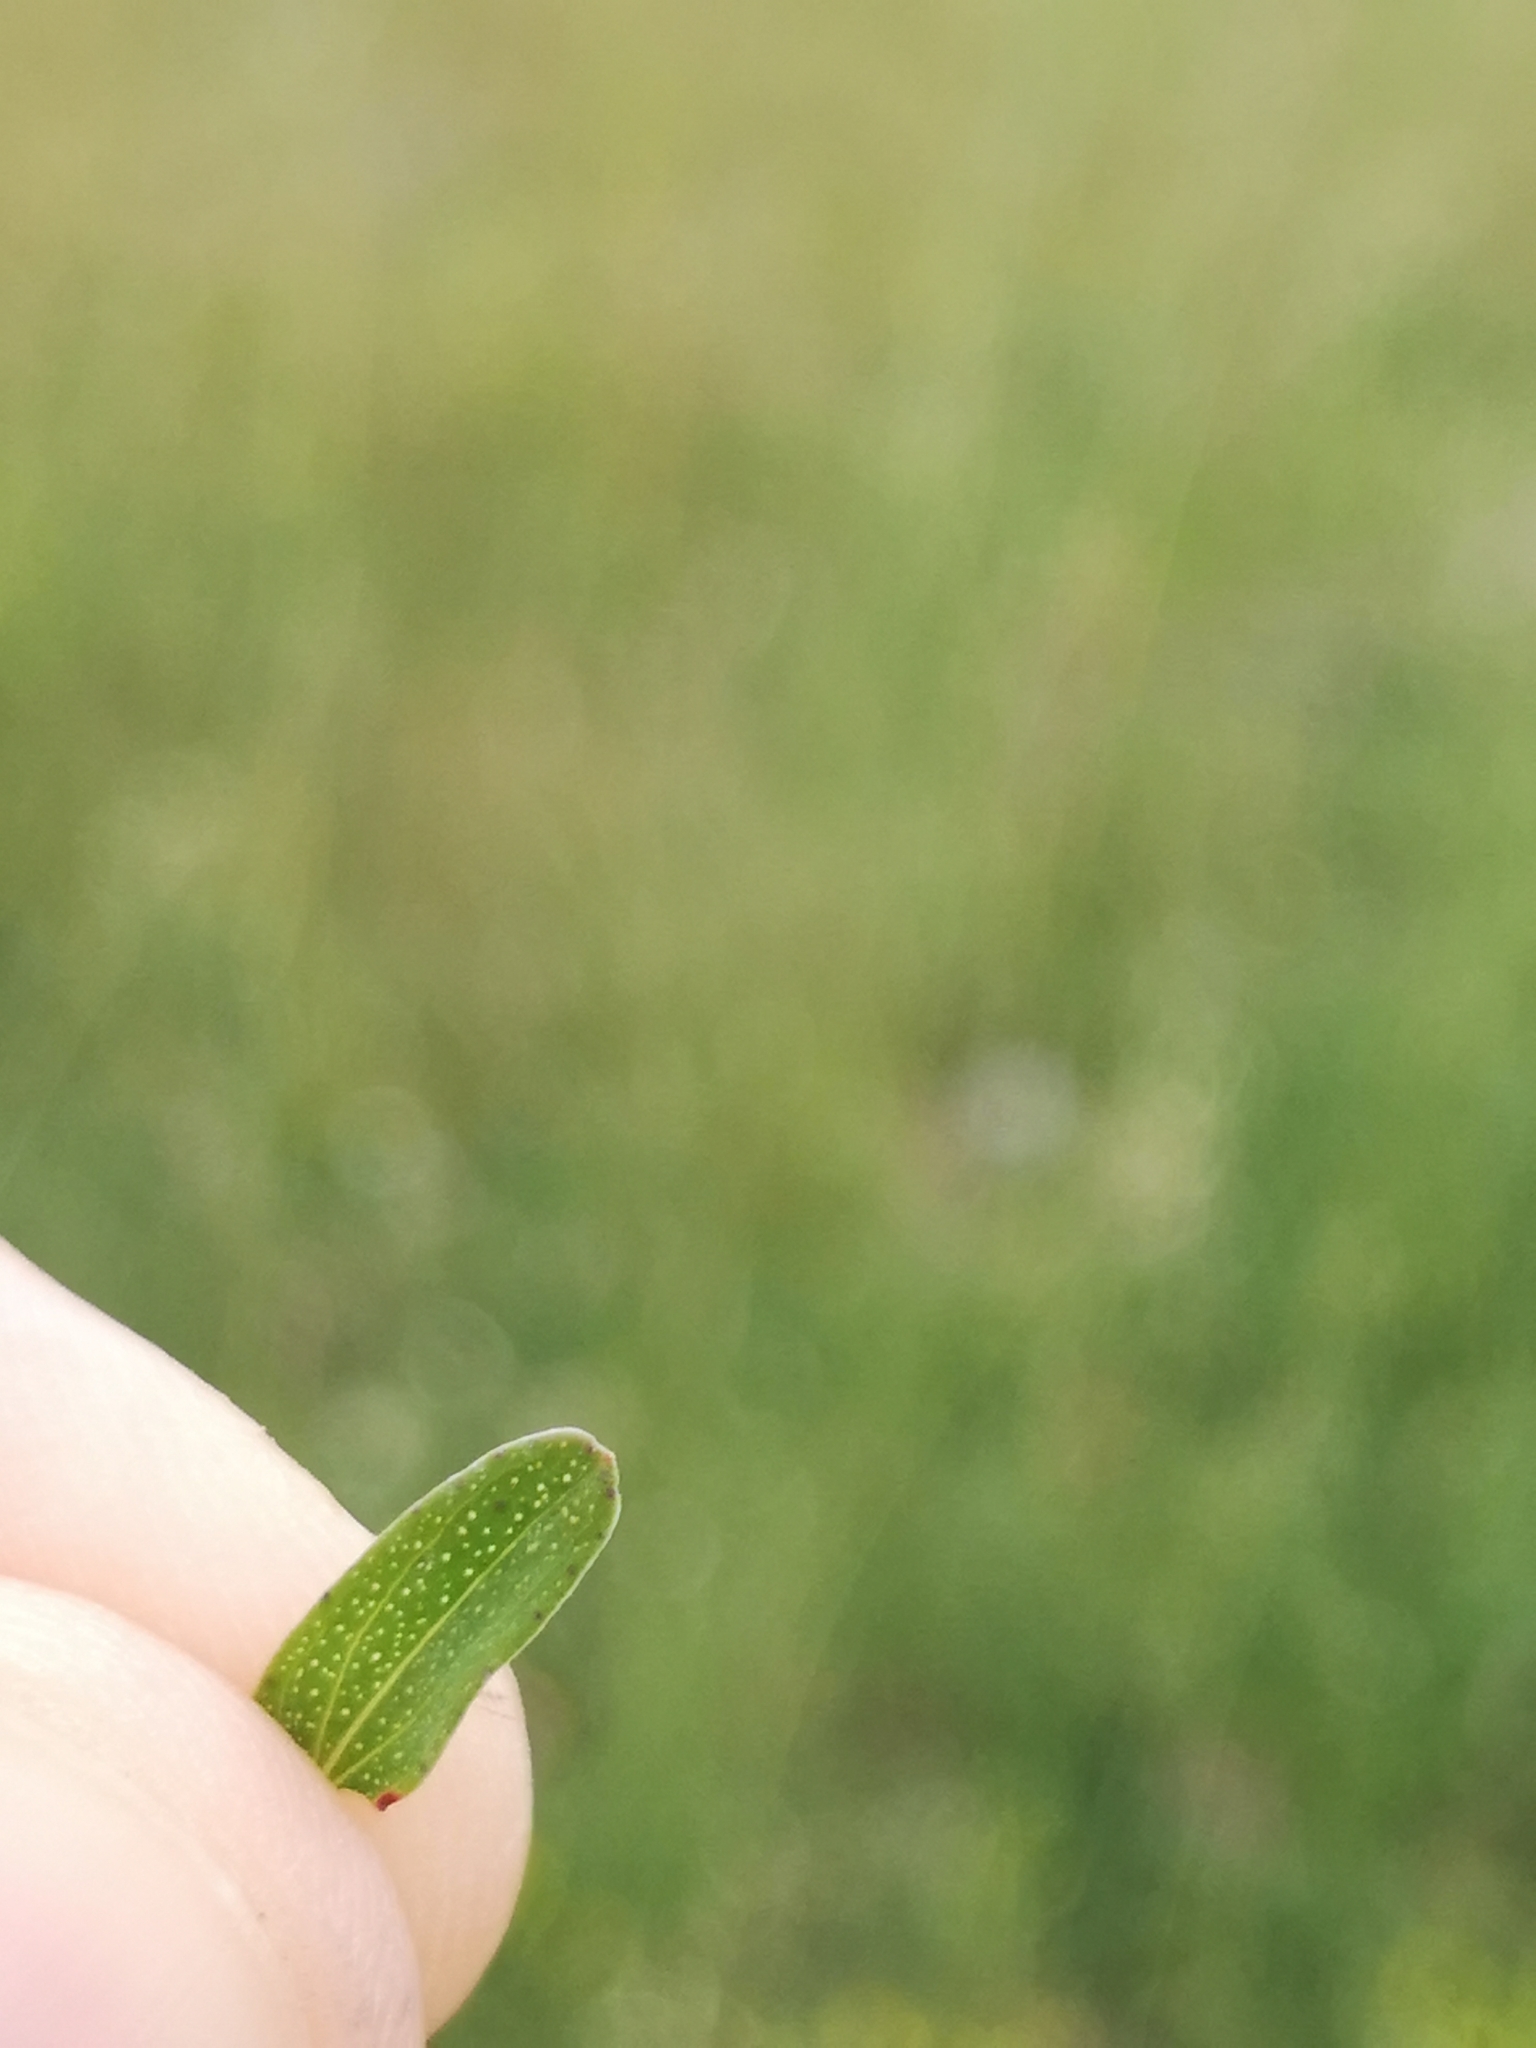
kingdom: Plantae
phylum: Tracheophyta
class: Magnoliopsida
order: Malpighiales
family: Hypericaceae
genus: Hypericum
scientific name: Hypericum perforatum
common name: Common st. johnswort
